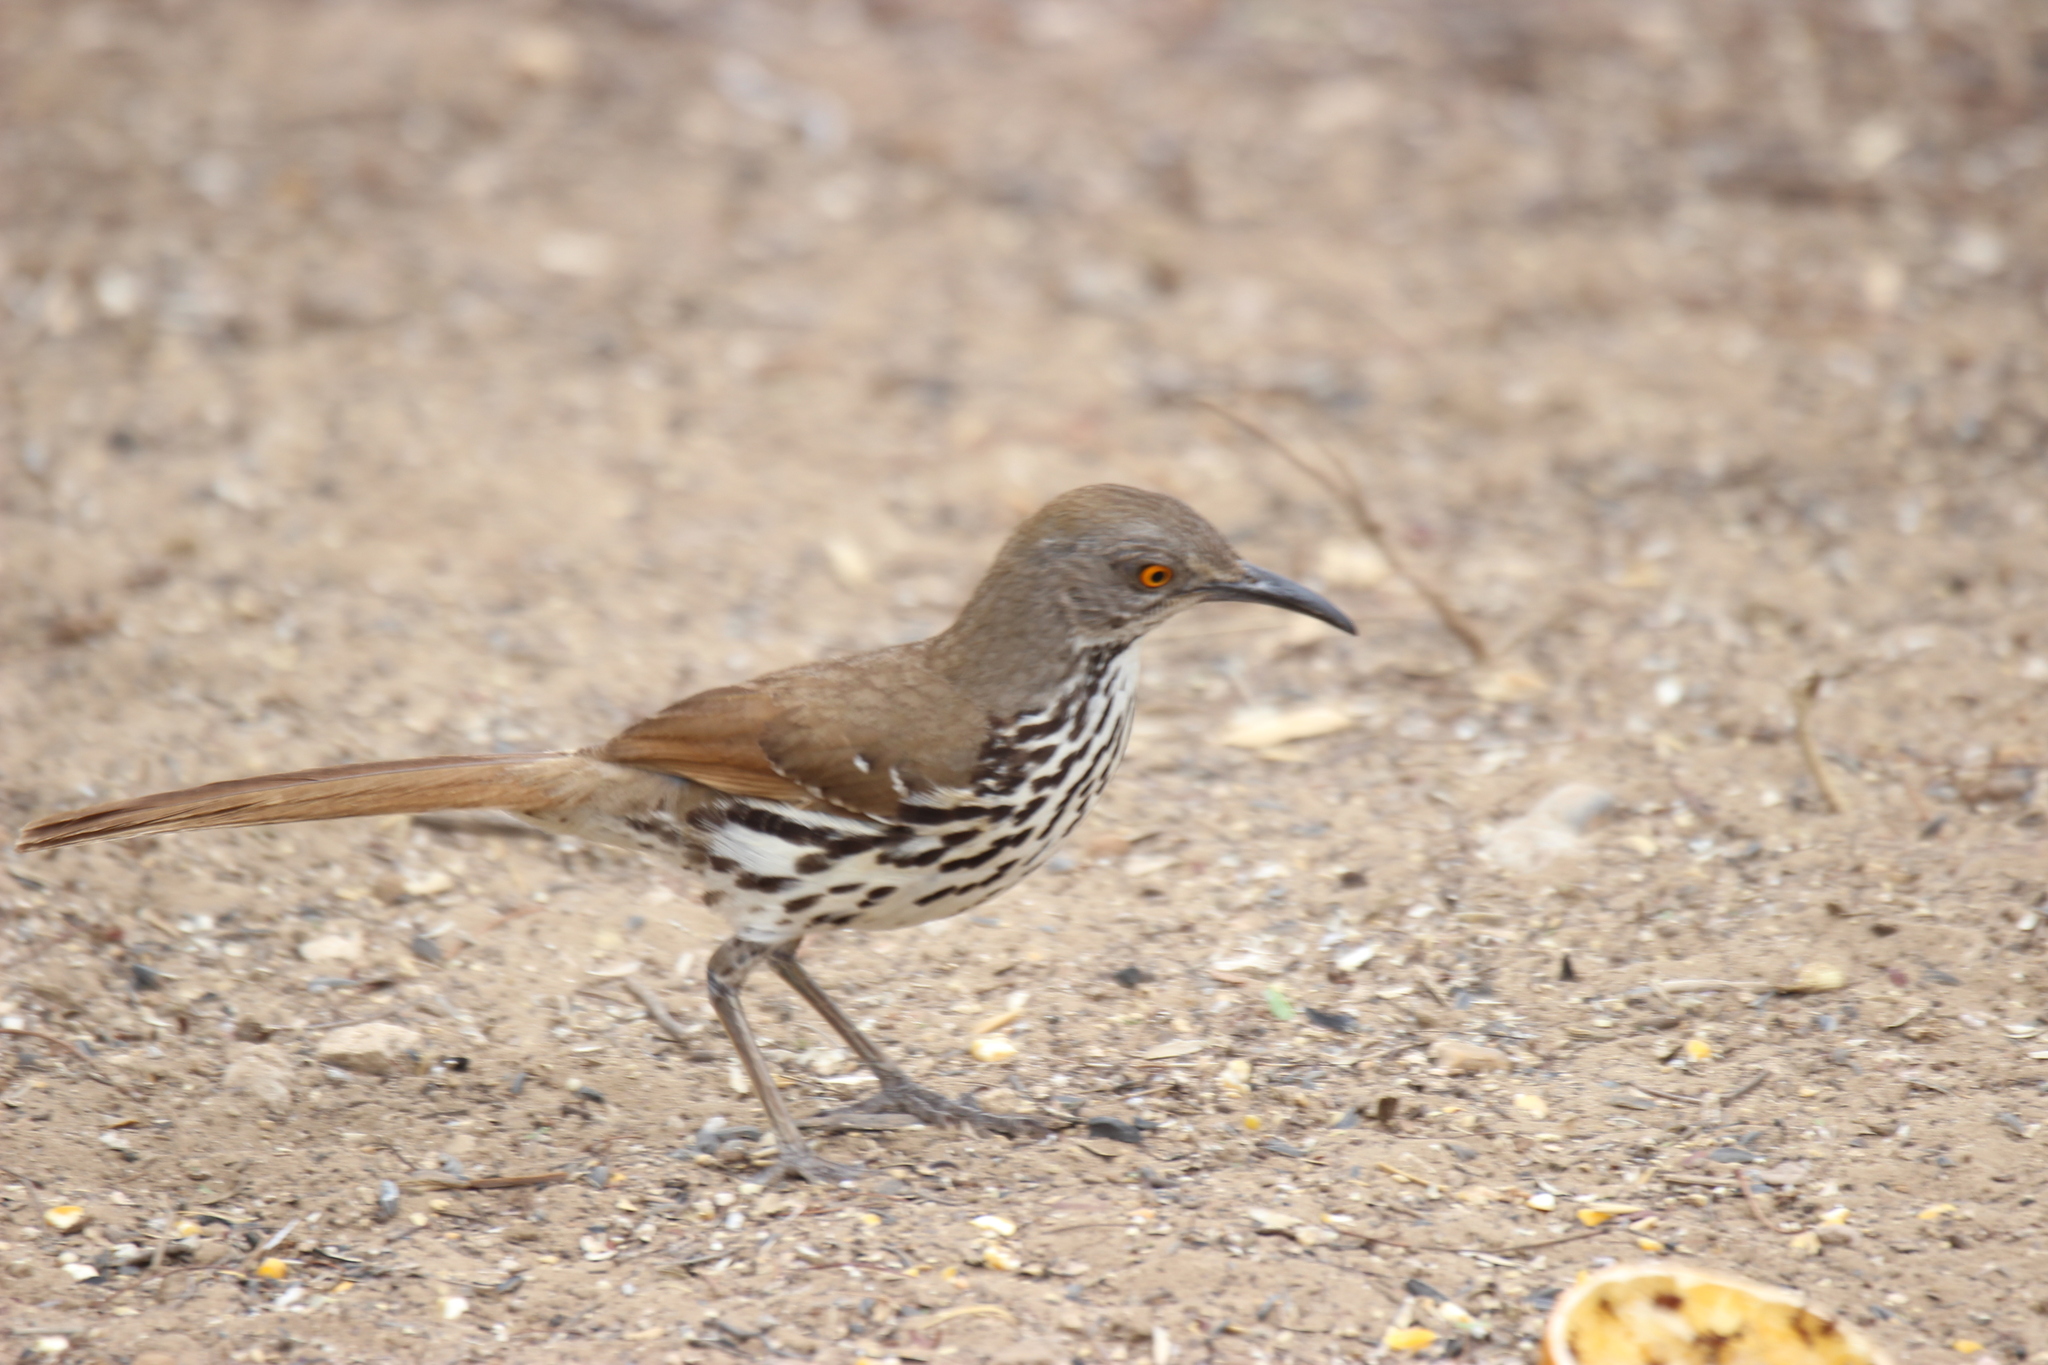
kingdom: Animalia
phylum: Chordata
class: Aves
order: Passeriformes
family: Mimidae
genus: Toxostoma
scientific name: Toxostoma longirostre
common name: Long-billed thrasher
